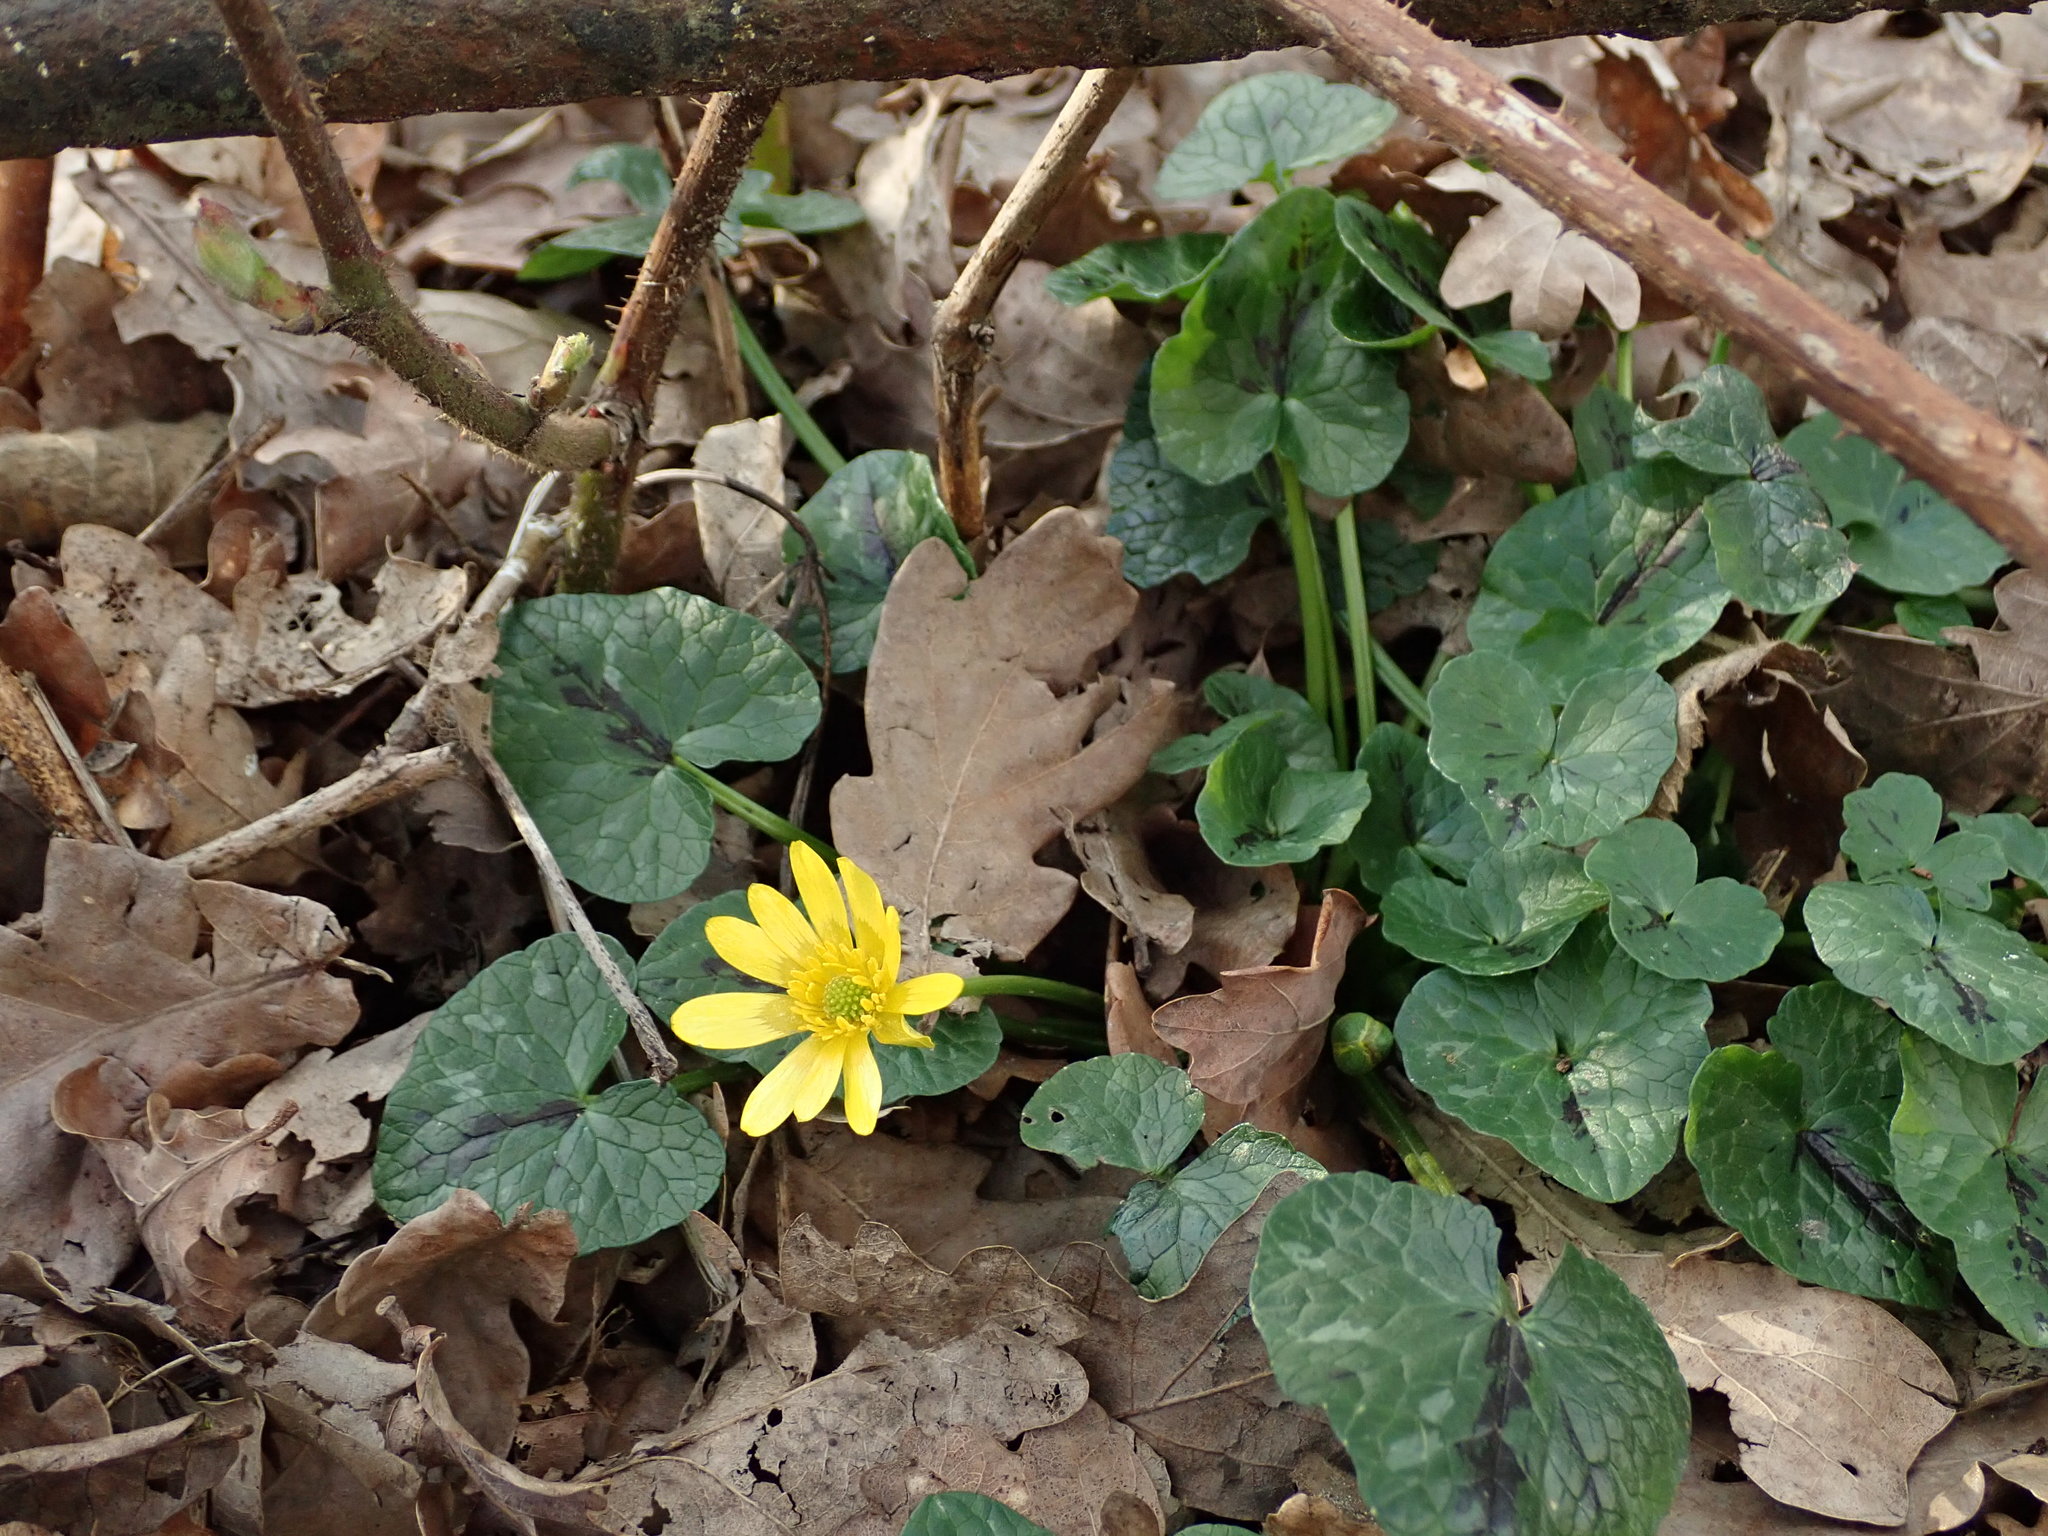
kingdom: Plantae
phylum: Tracheophyta
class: Magnoliopsida
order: Ranunculales
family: Ranunculaceae
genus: Ficaria
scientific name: Ficaria verna
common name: Lesser celandine
